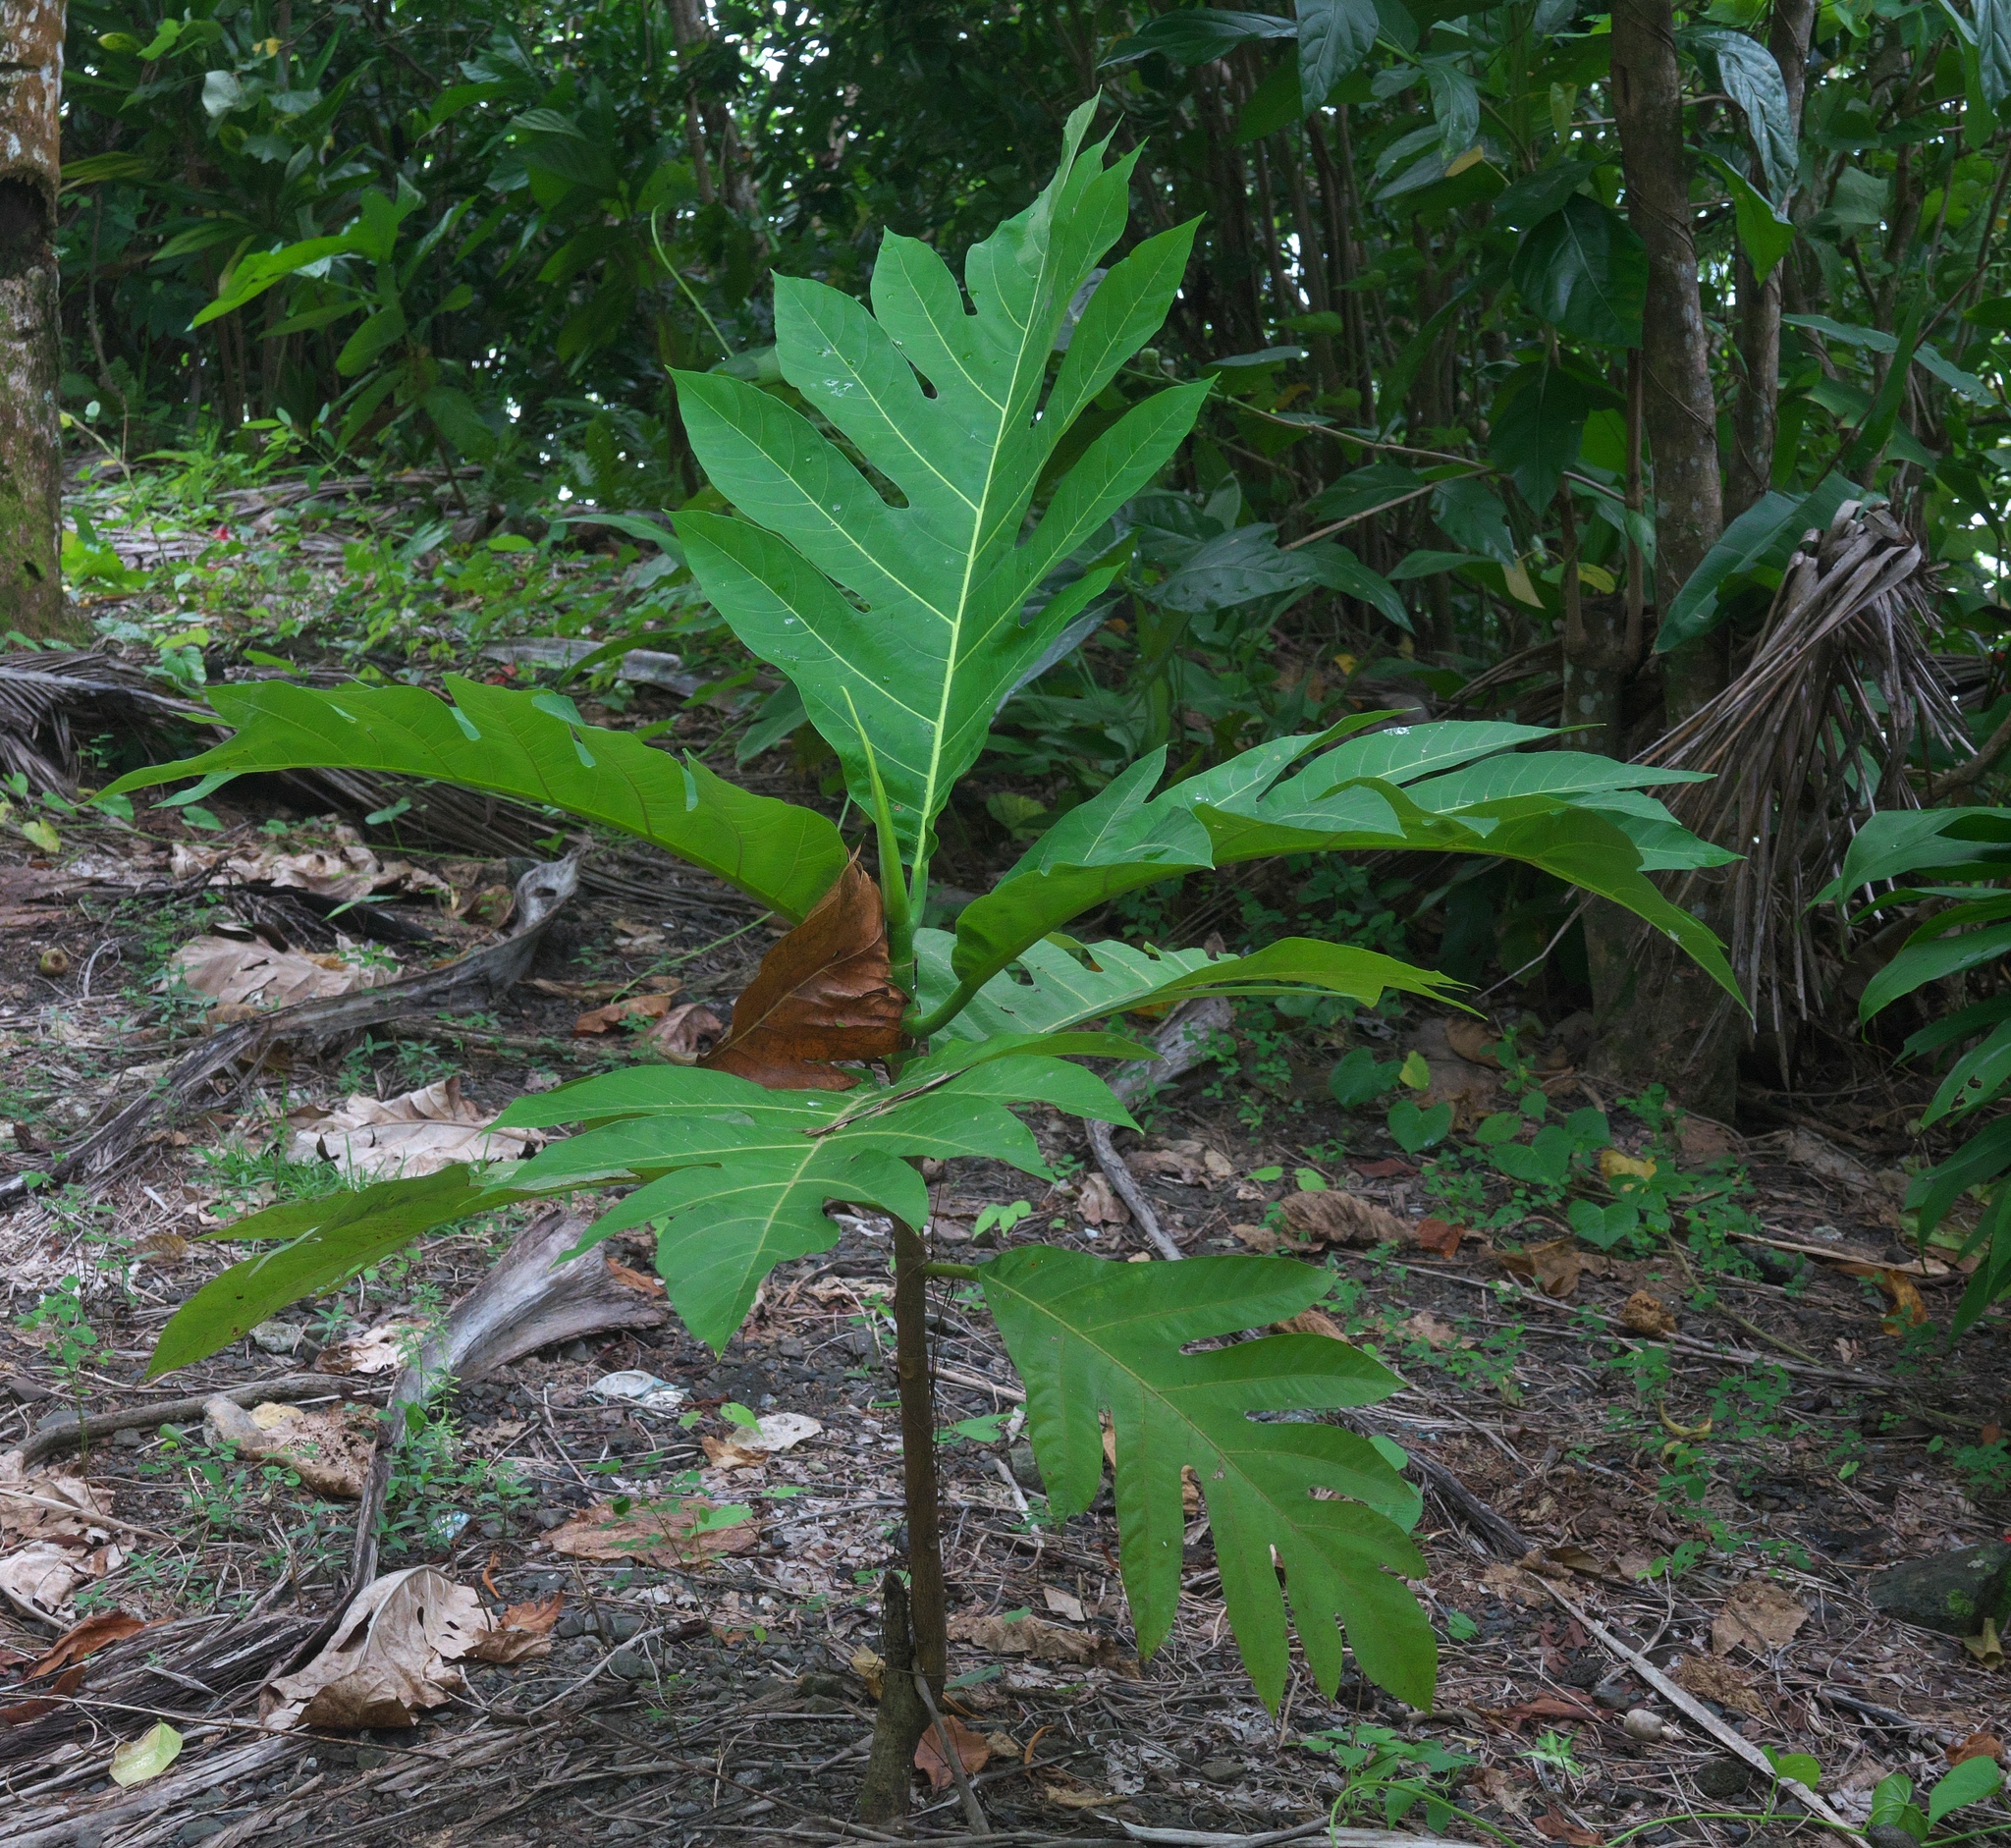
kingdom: Plantae
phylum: Tracheophyta
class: Magnoliopsida
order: Rosales
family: Moraceae
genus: Artocarpus
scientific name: Artocarpus altilis
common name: Breadfruit
